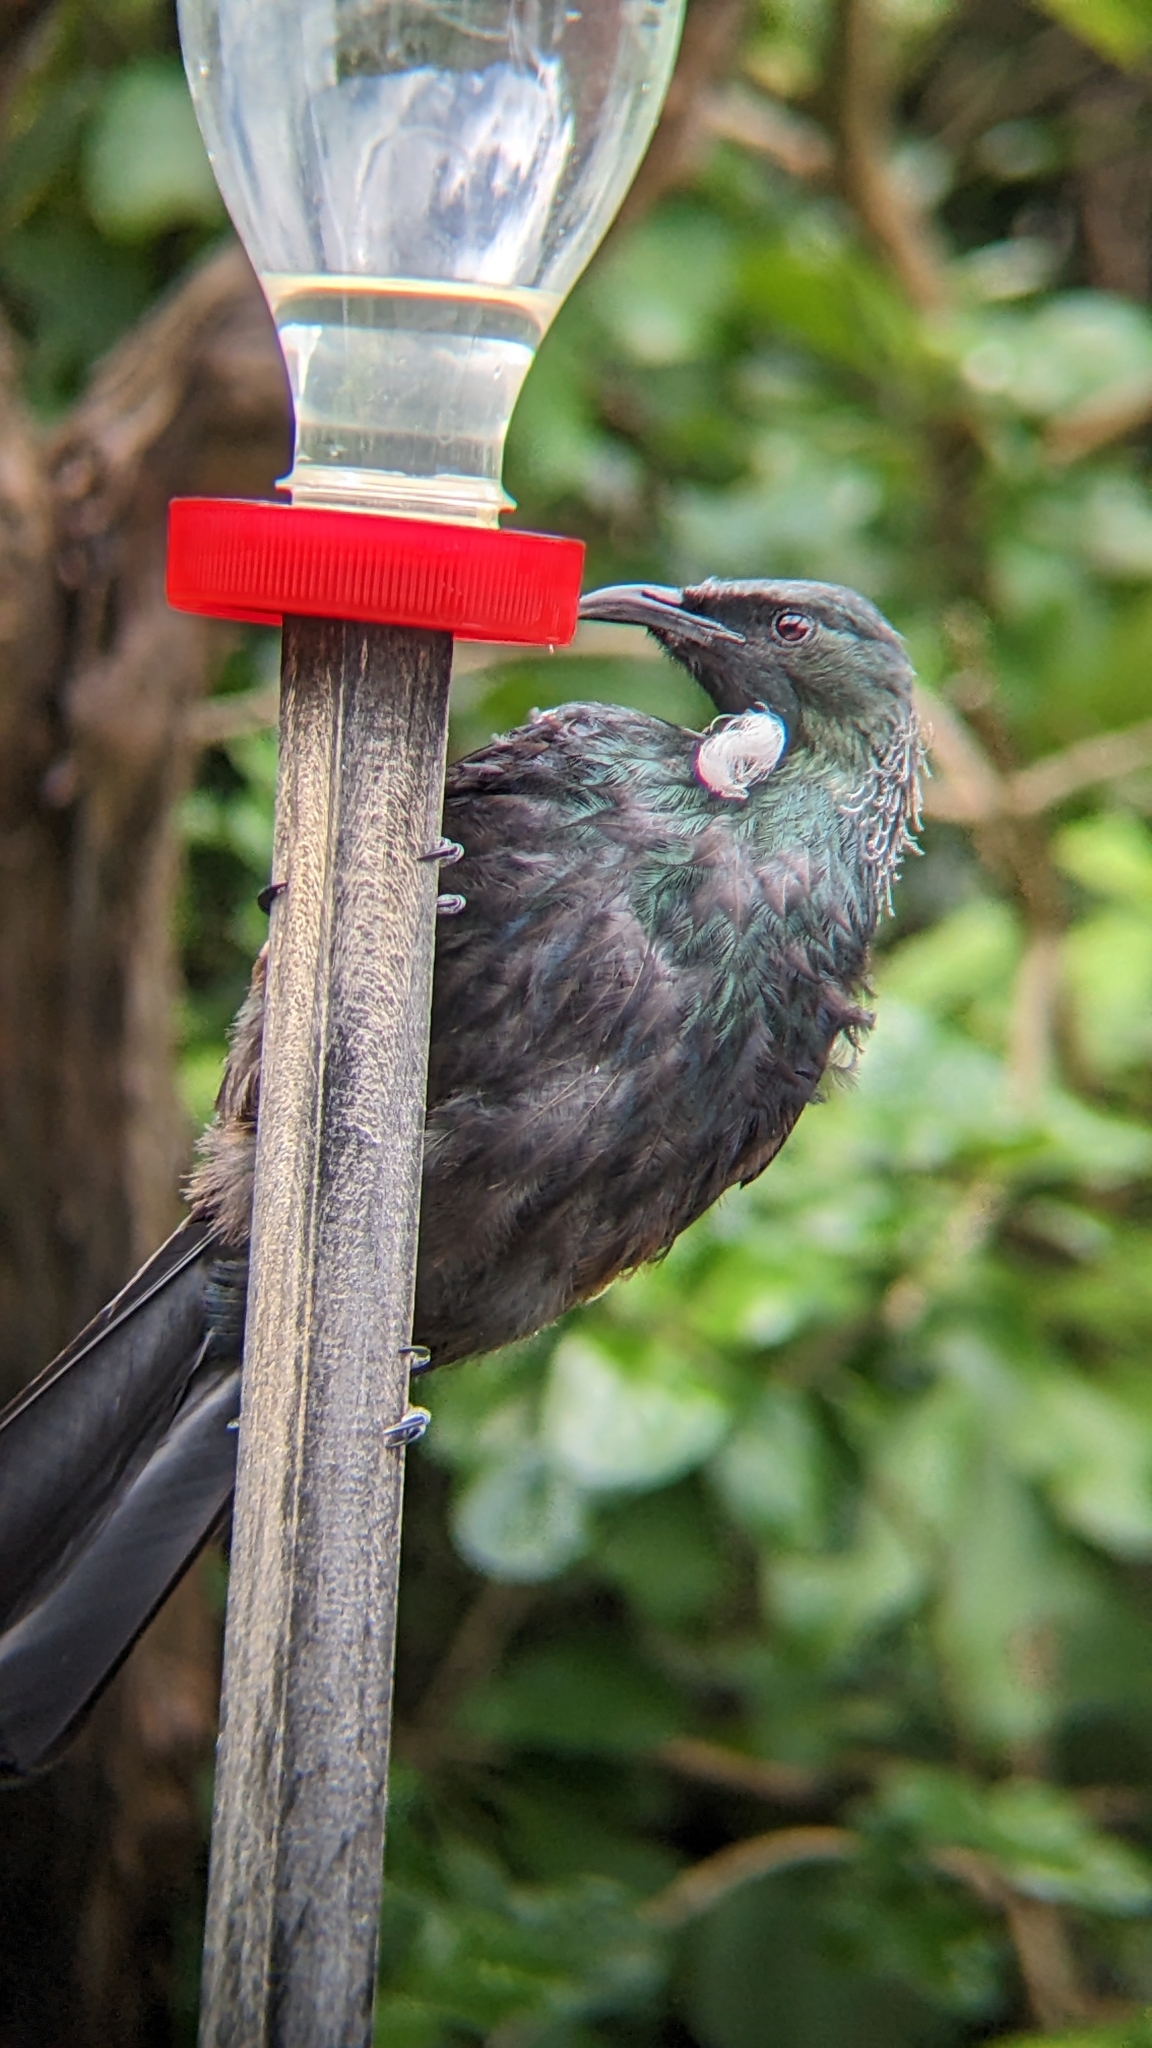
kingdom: Animalia
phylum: Chordata
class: Aves
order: Passeriformes
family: Meliphagidae
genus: Prosthemadera
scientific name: Prosthemadera novaeseelandiae
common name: Tui
